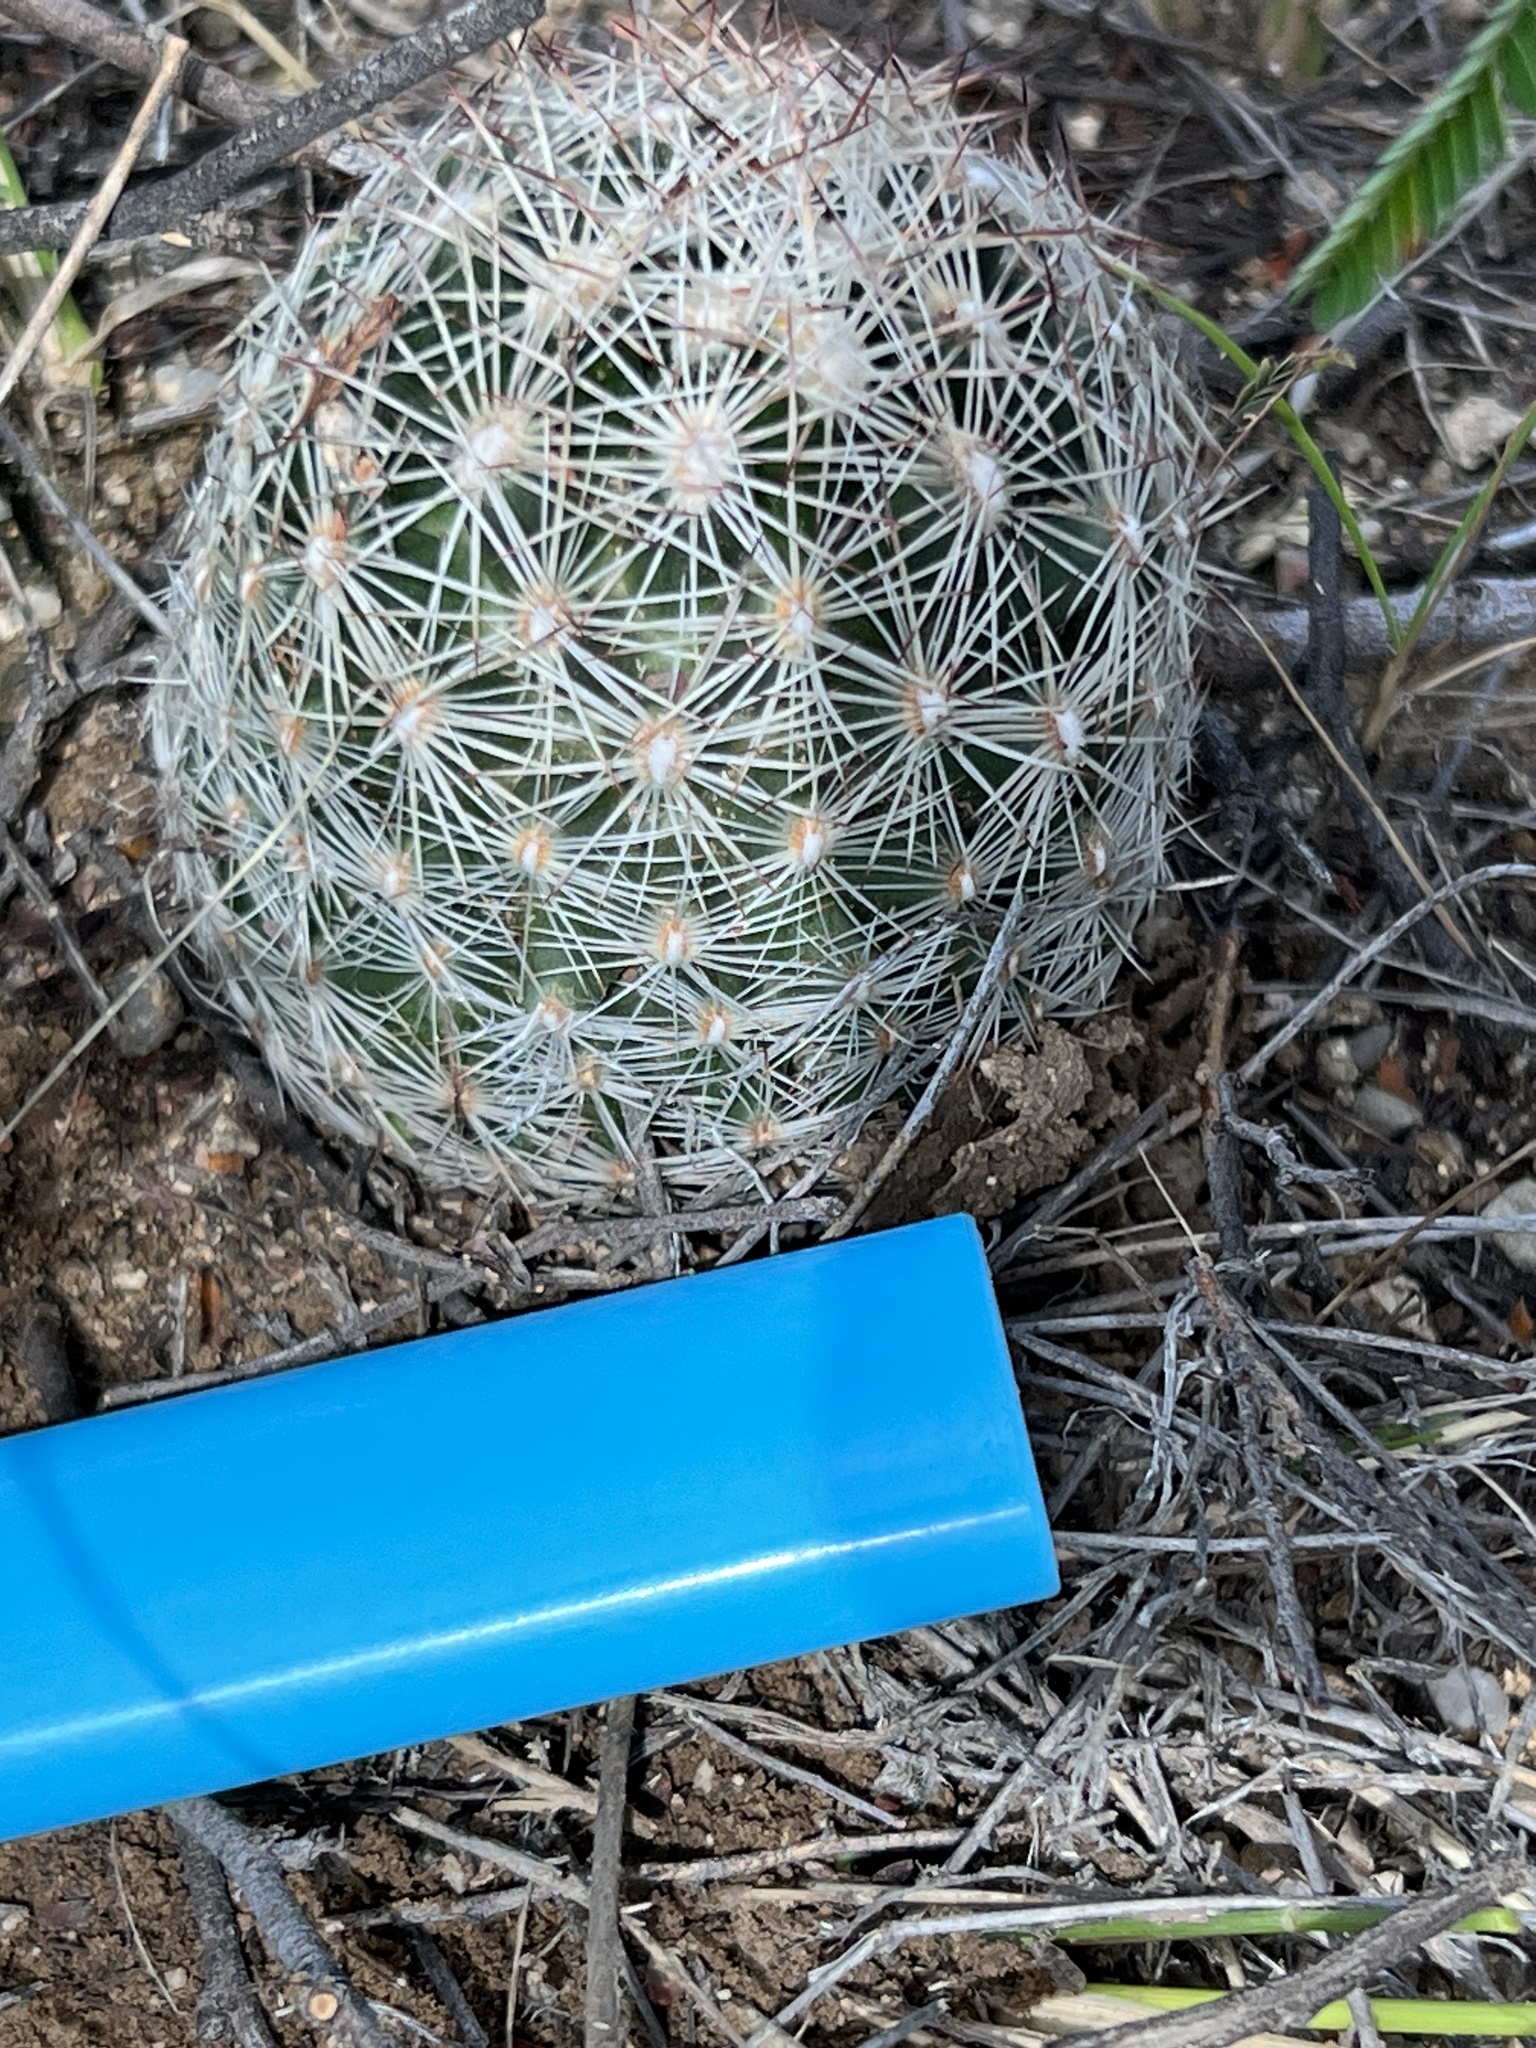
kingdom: Plantae
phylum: Tracheophyta
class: Magnoliopsida
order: Caryophyllales
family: Cactaceae
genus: Pelecyphora
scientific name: Pelecyphora vivipara
